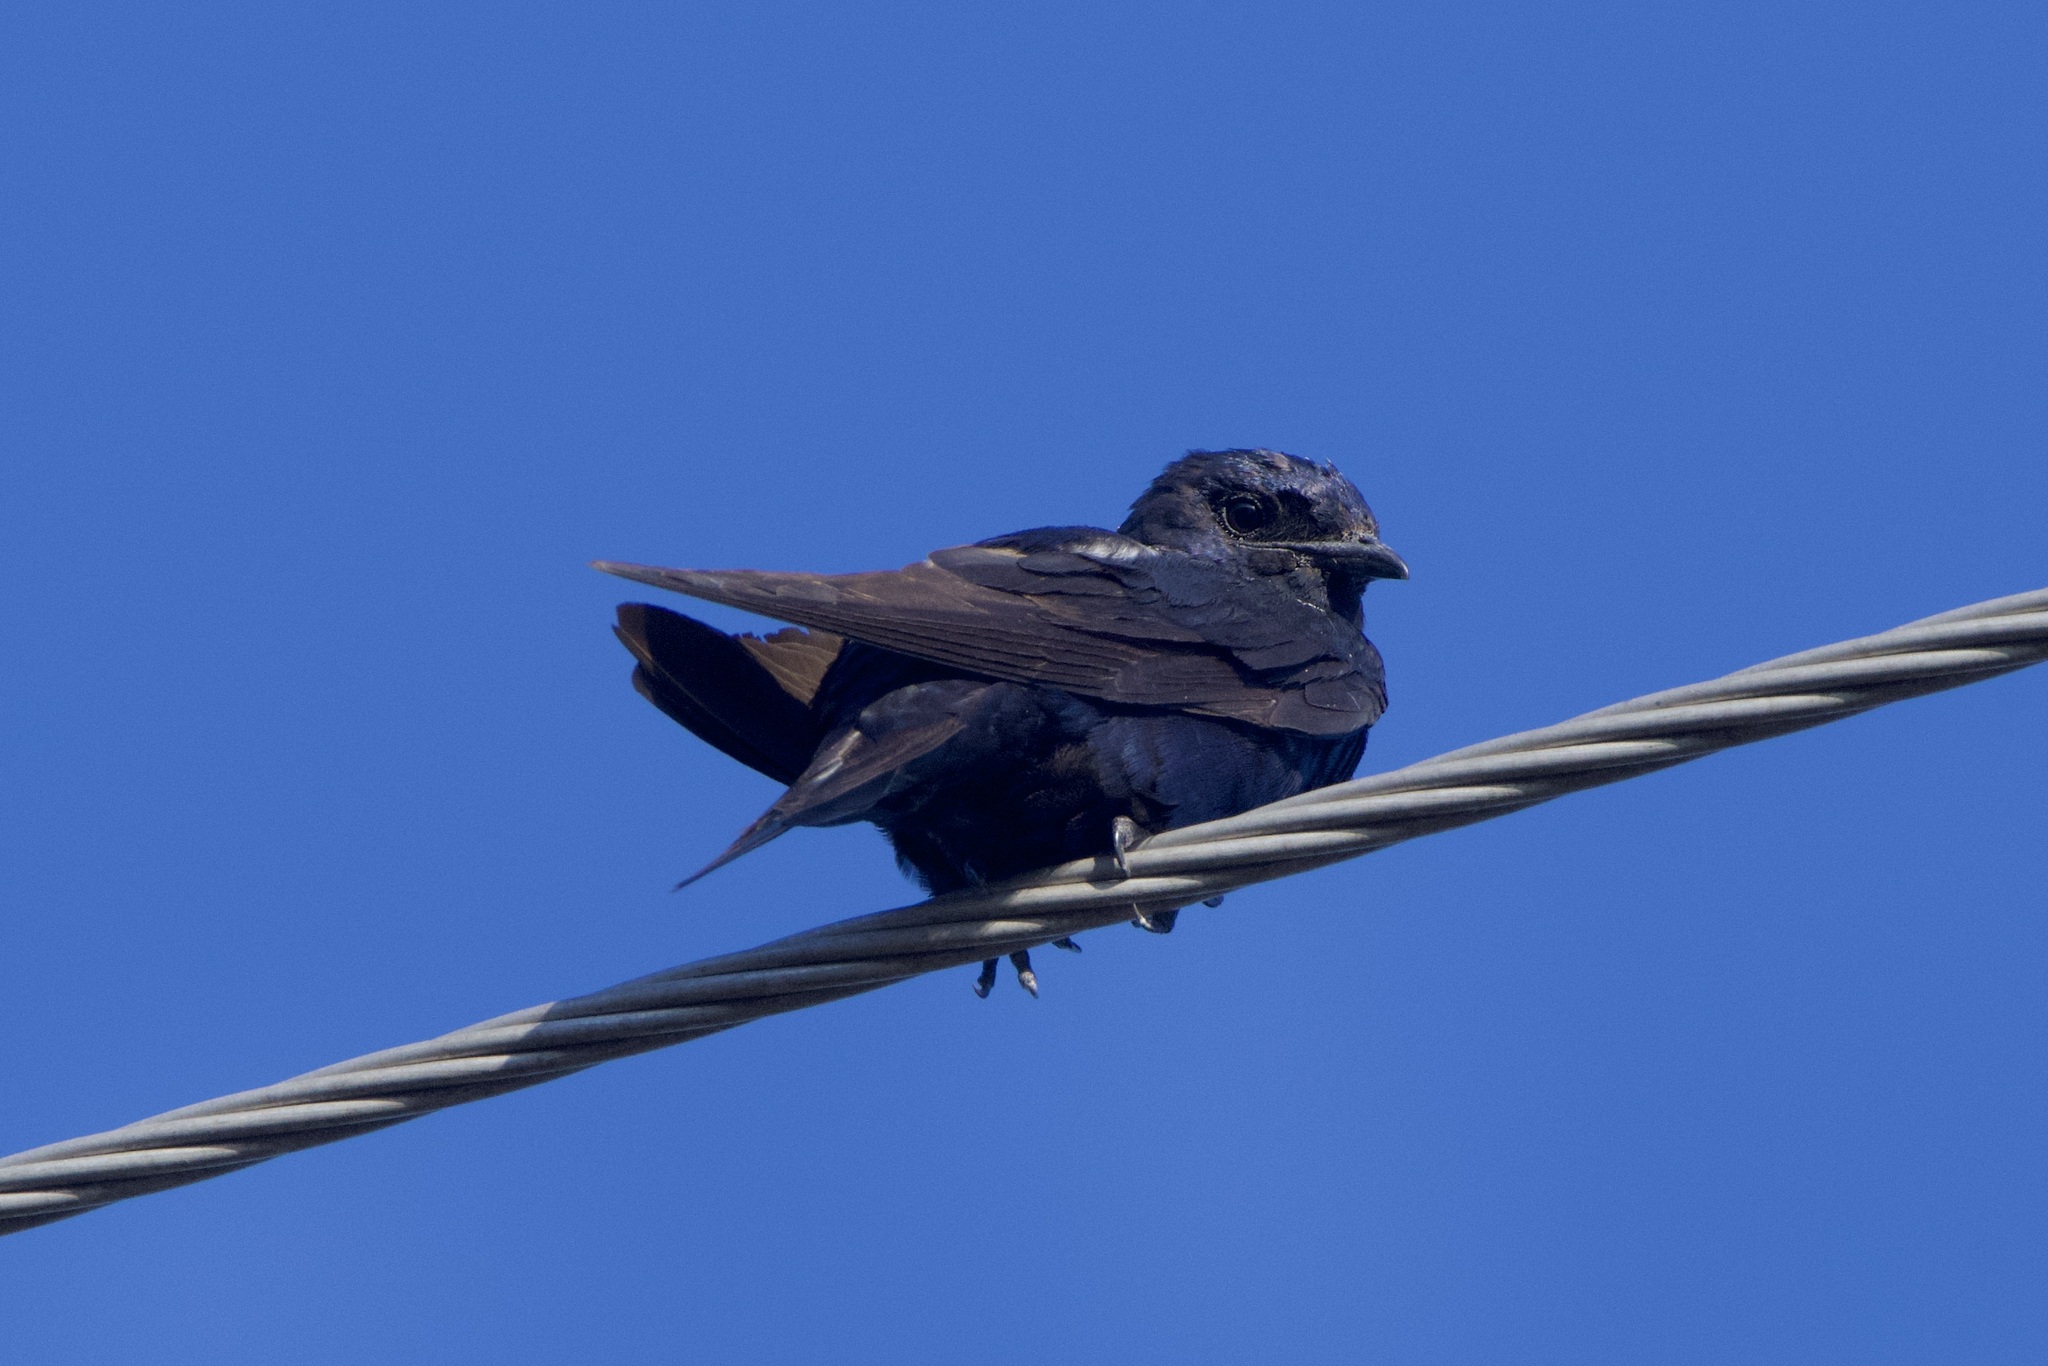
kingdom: Animalia
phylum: Chordata
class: Aves
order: Passeriformes
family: Hirundinidae
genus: Progne
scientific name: Progne subis
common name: Purple martin
